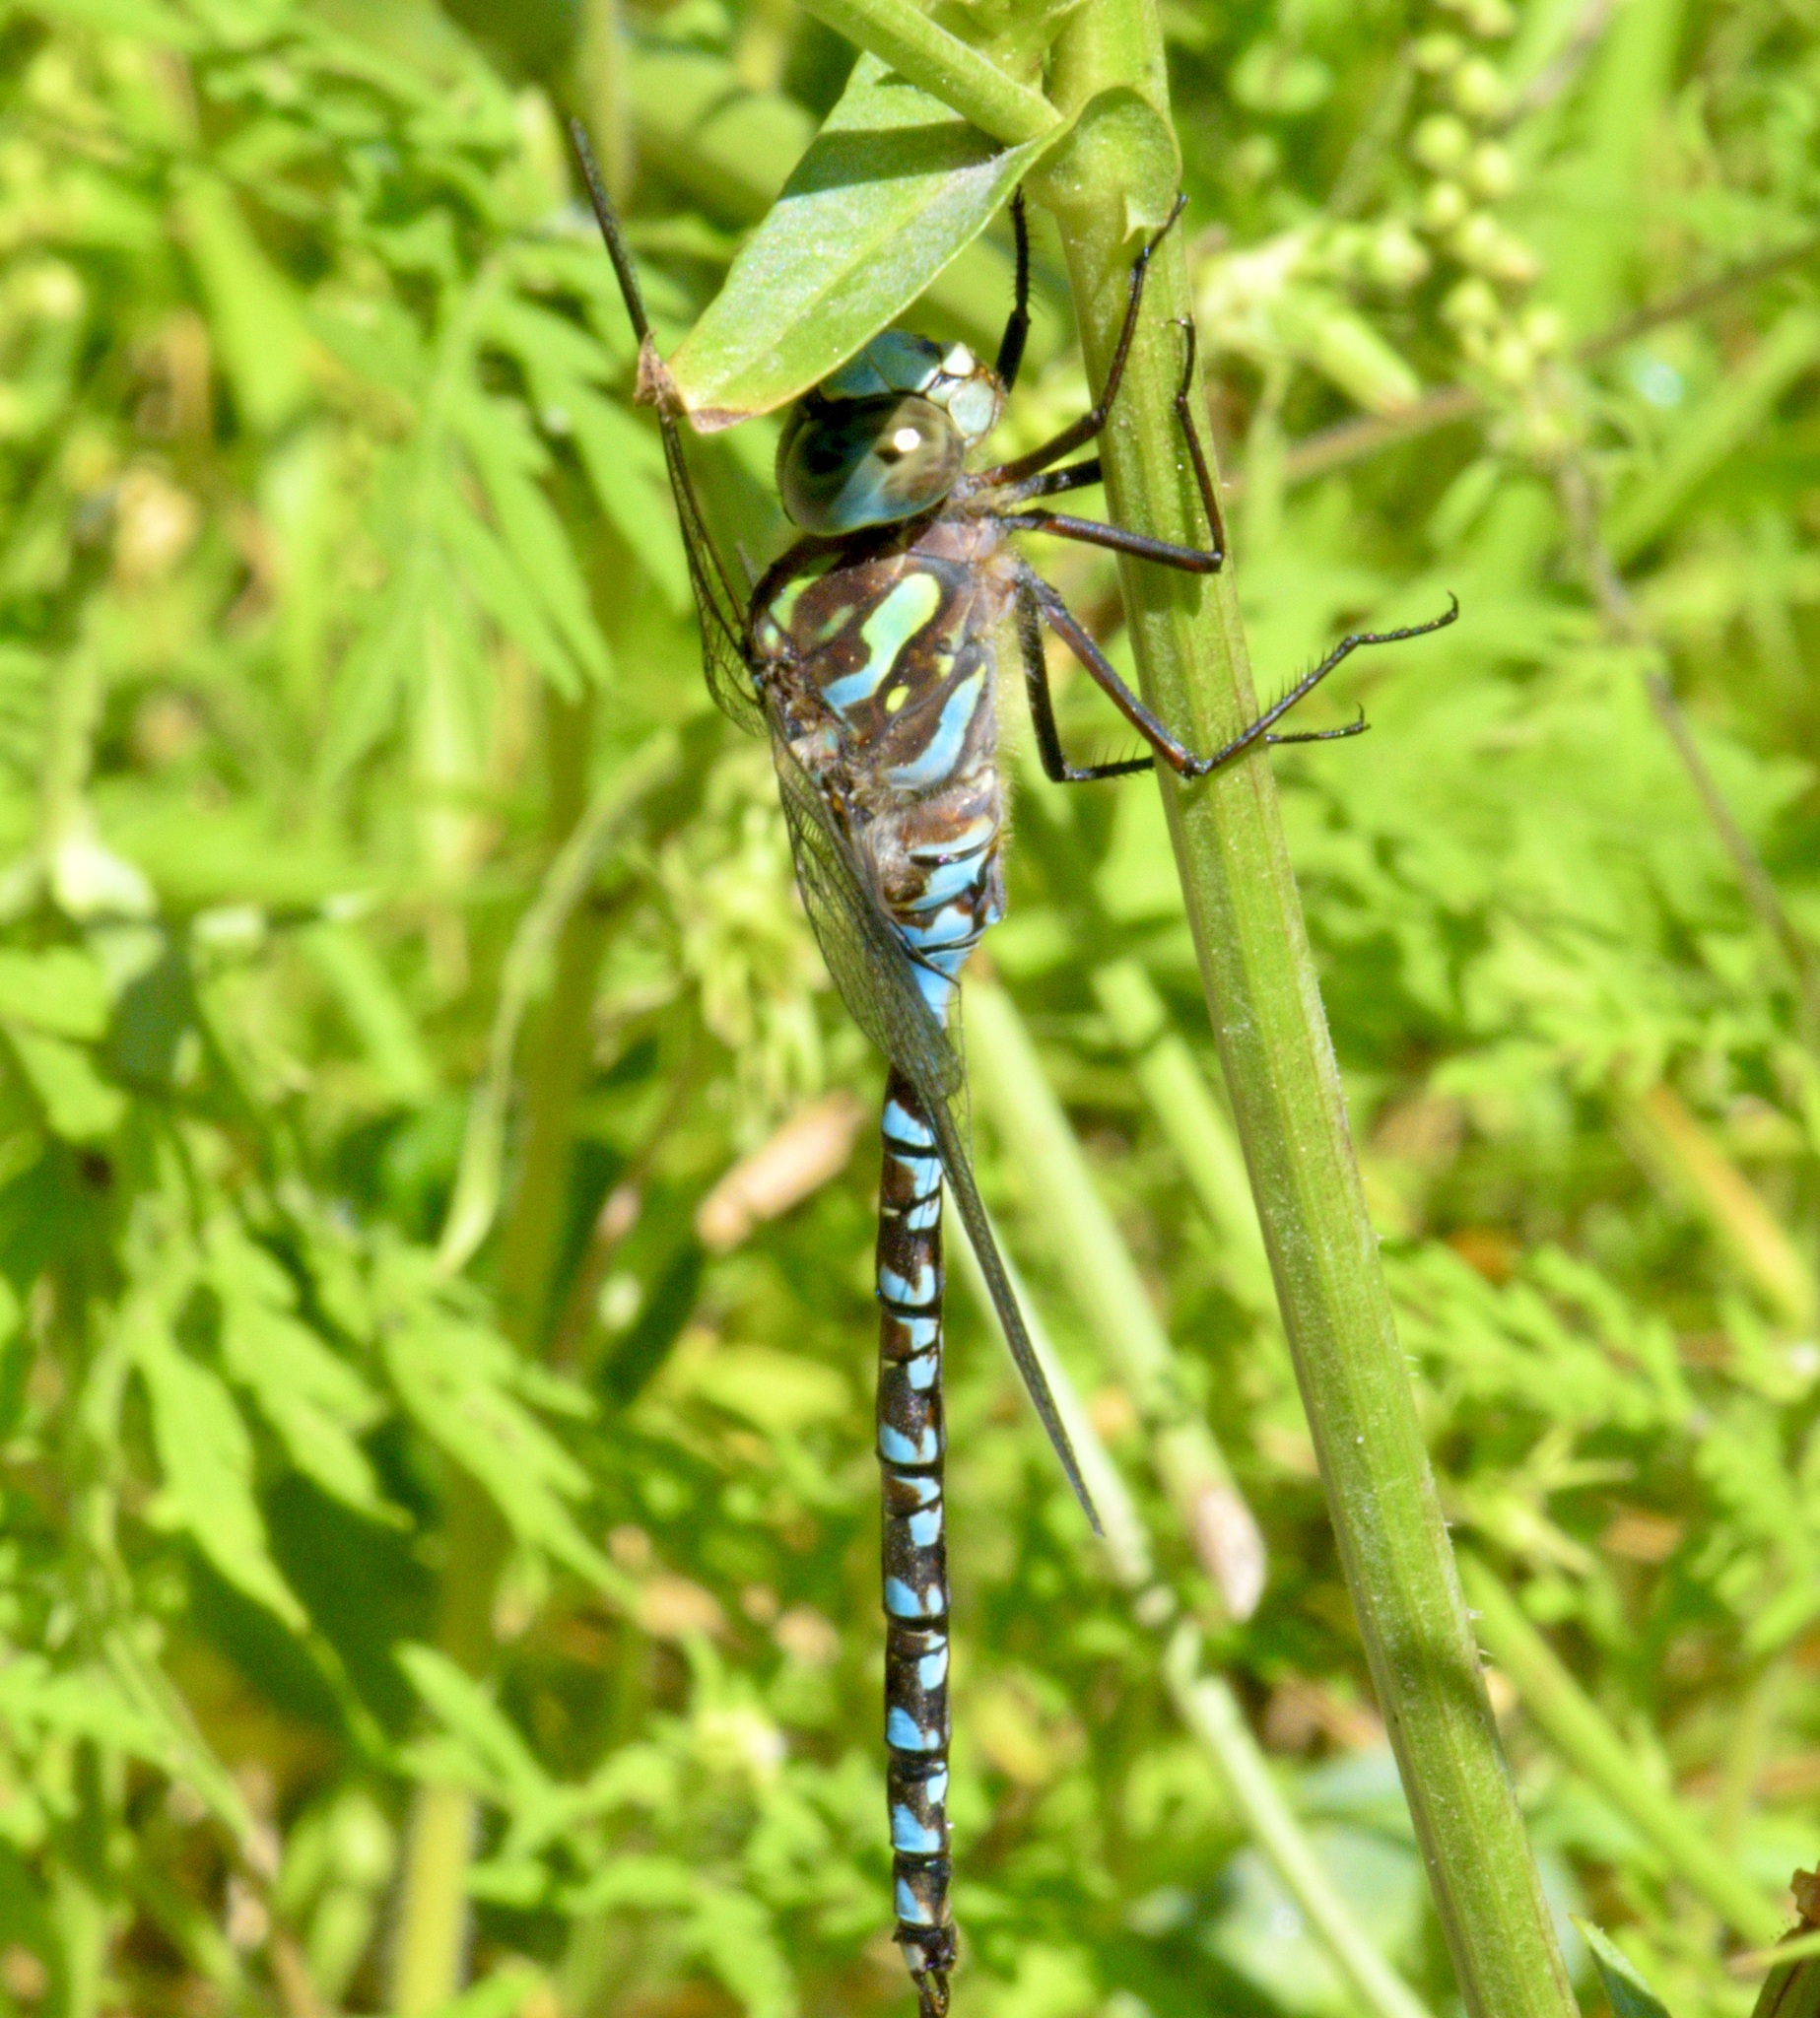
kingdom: Animalia
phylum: Arthropoda
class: Insecta
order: Odonata
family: Aeshnidae
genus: Aeshna
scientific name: Aeshna canadensis
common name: Canada darner
